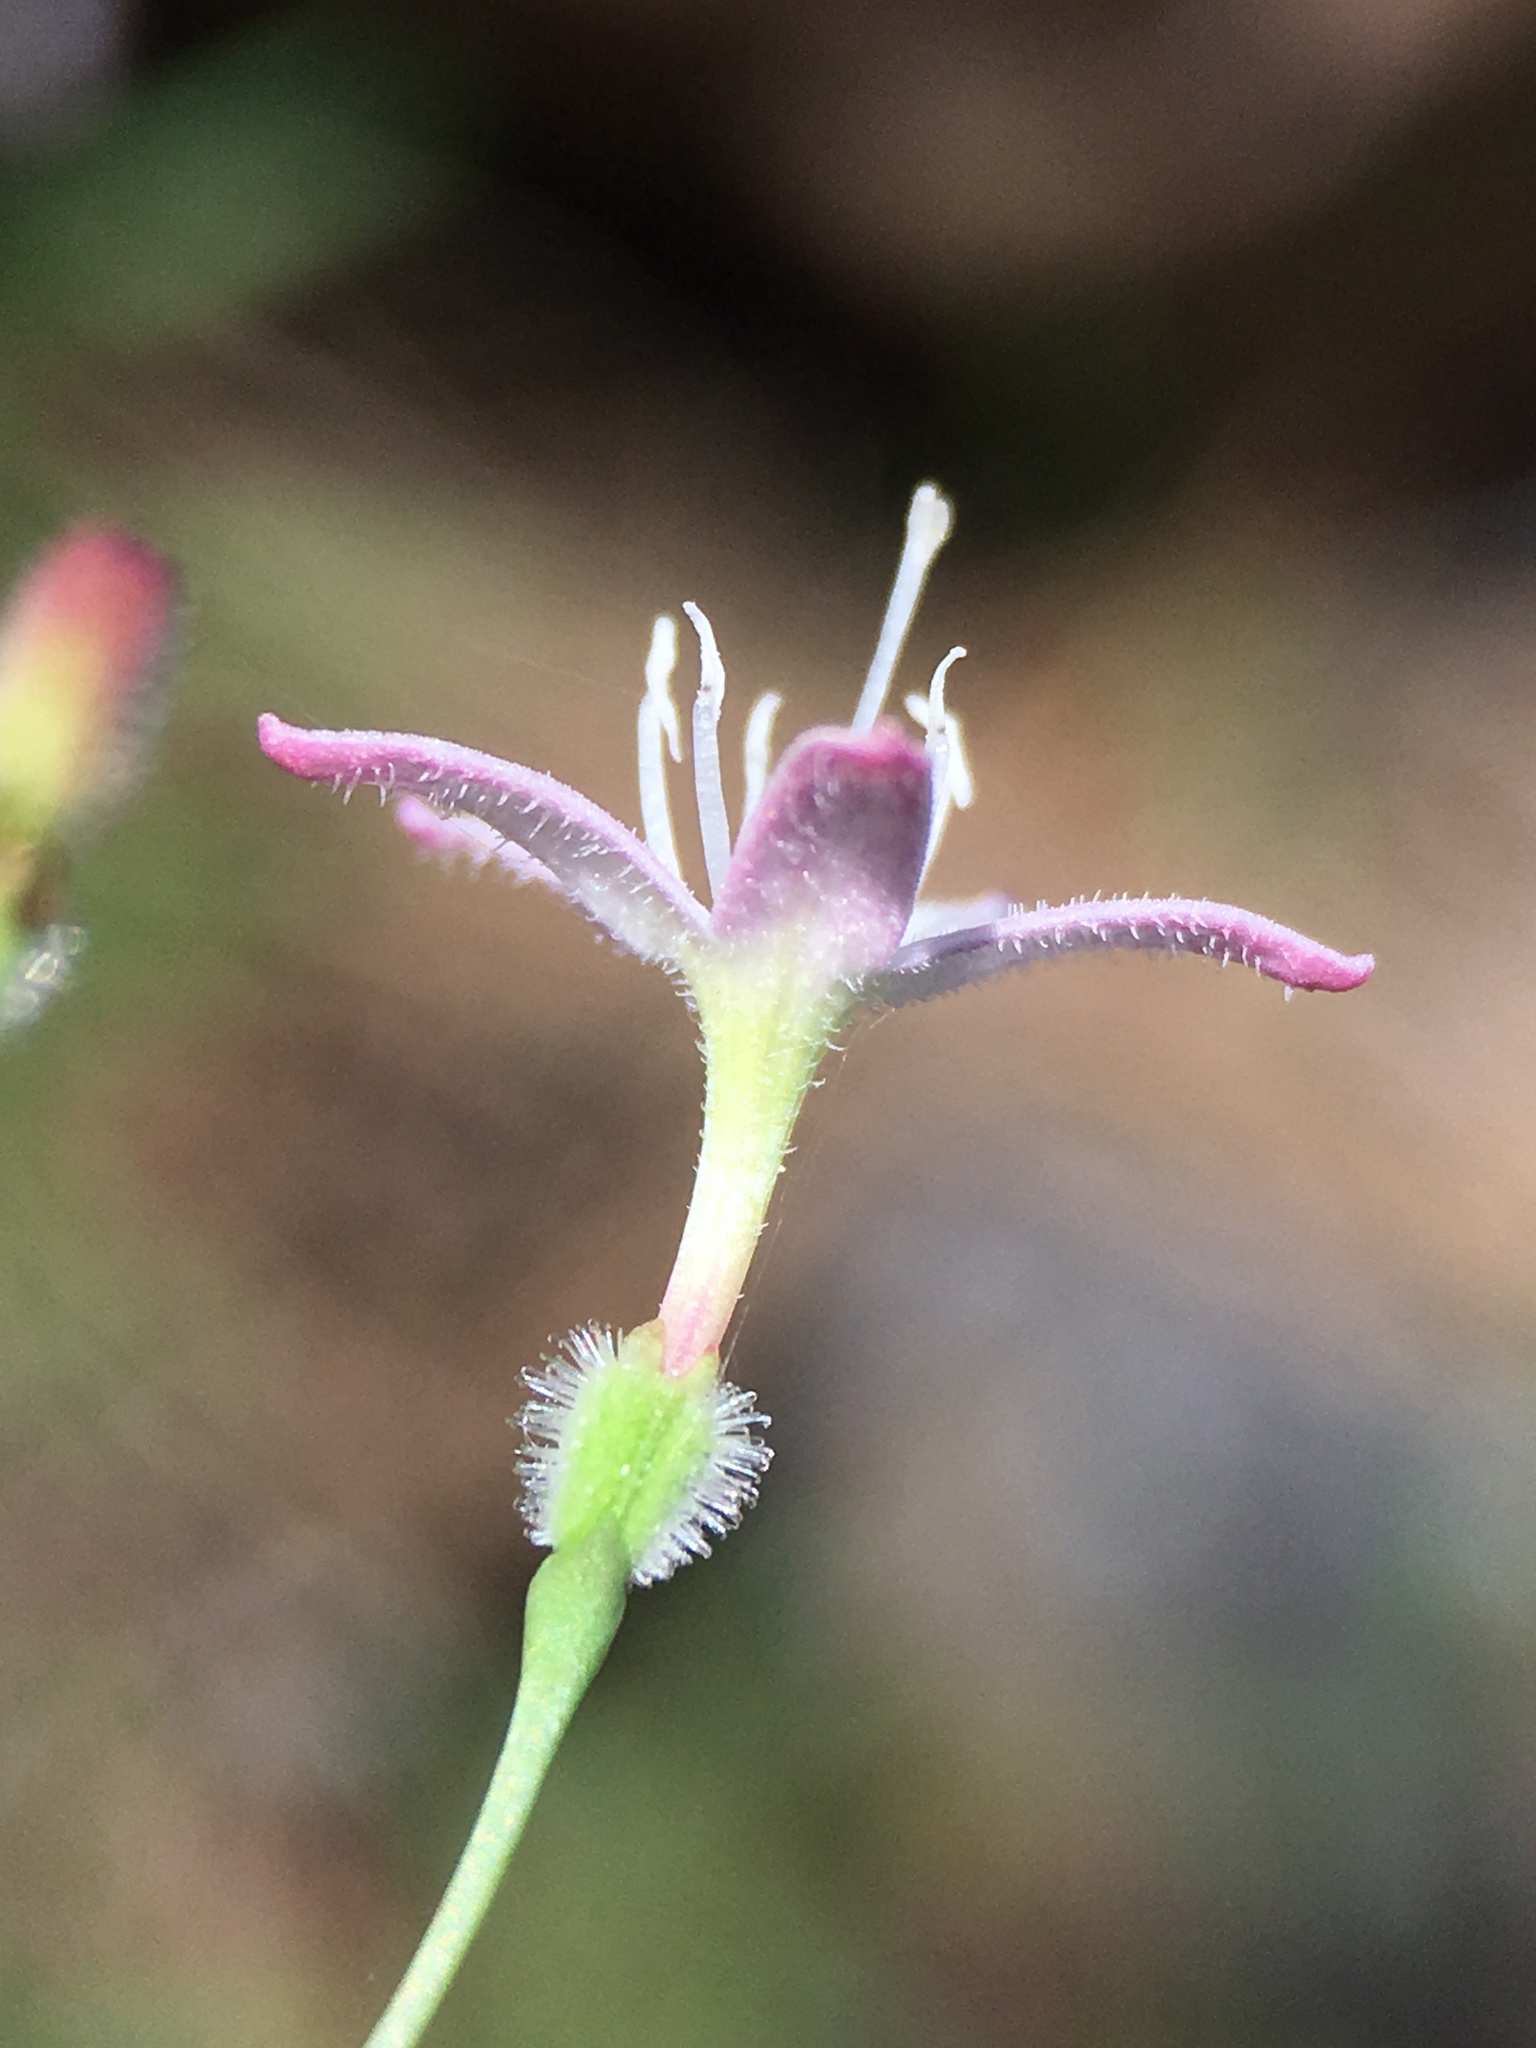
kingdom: Plantae
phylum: Tracheophyta
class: Magnoliopsida
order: Gentianales
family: Rubiaceae
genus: Kelloggia
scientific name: Kelloggia galioides
